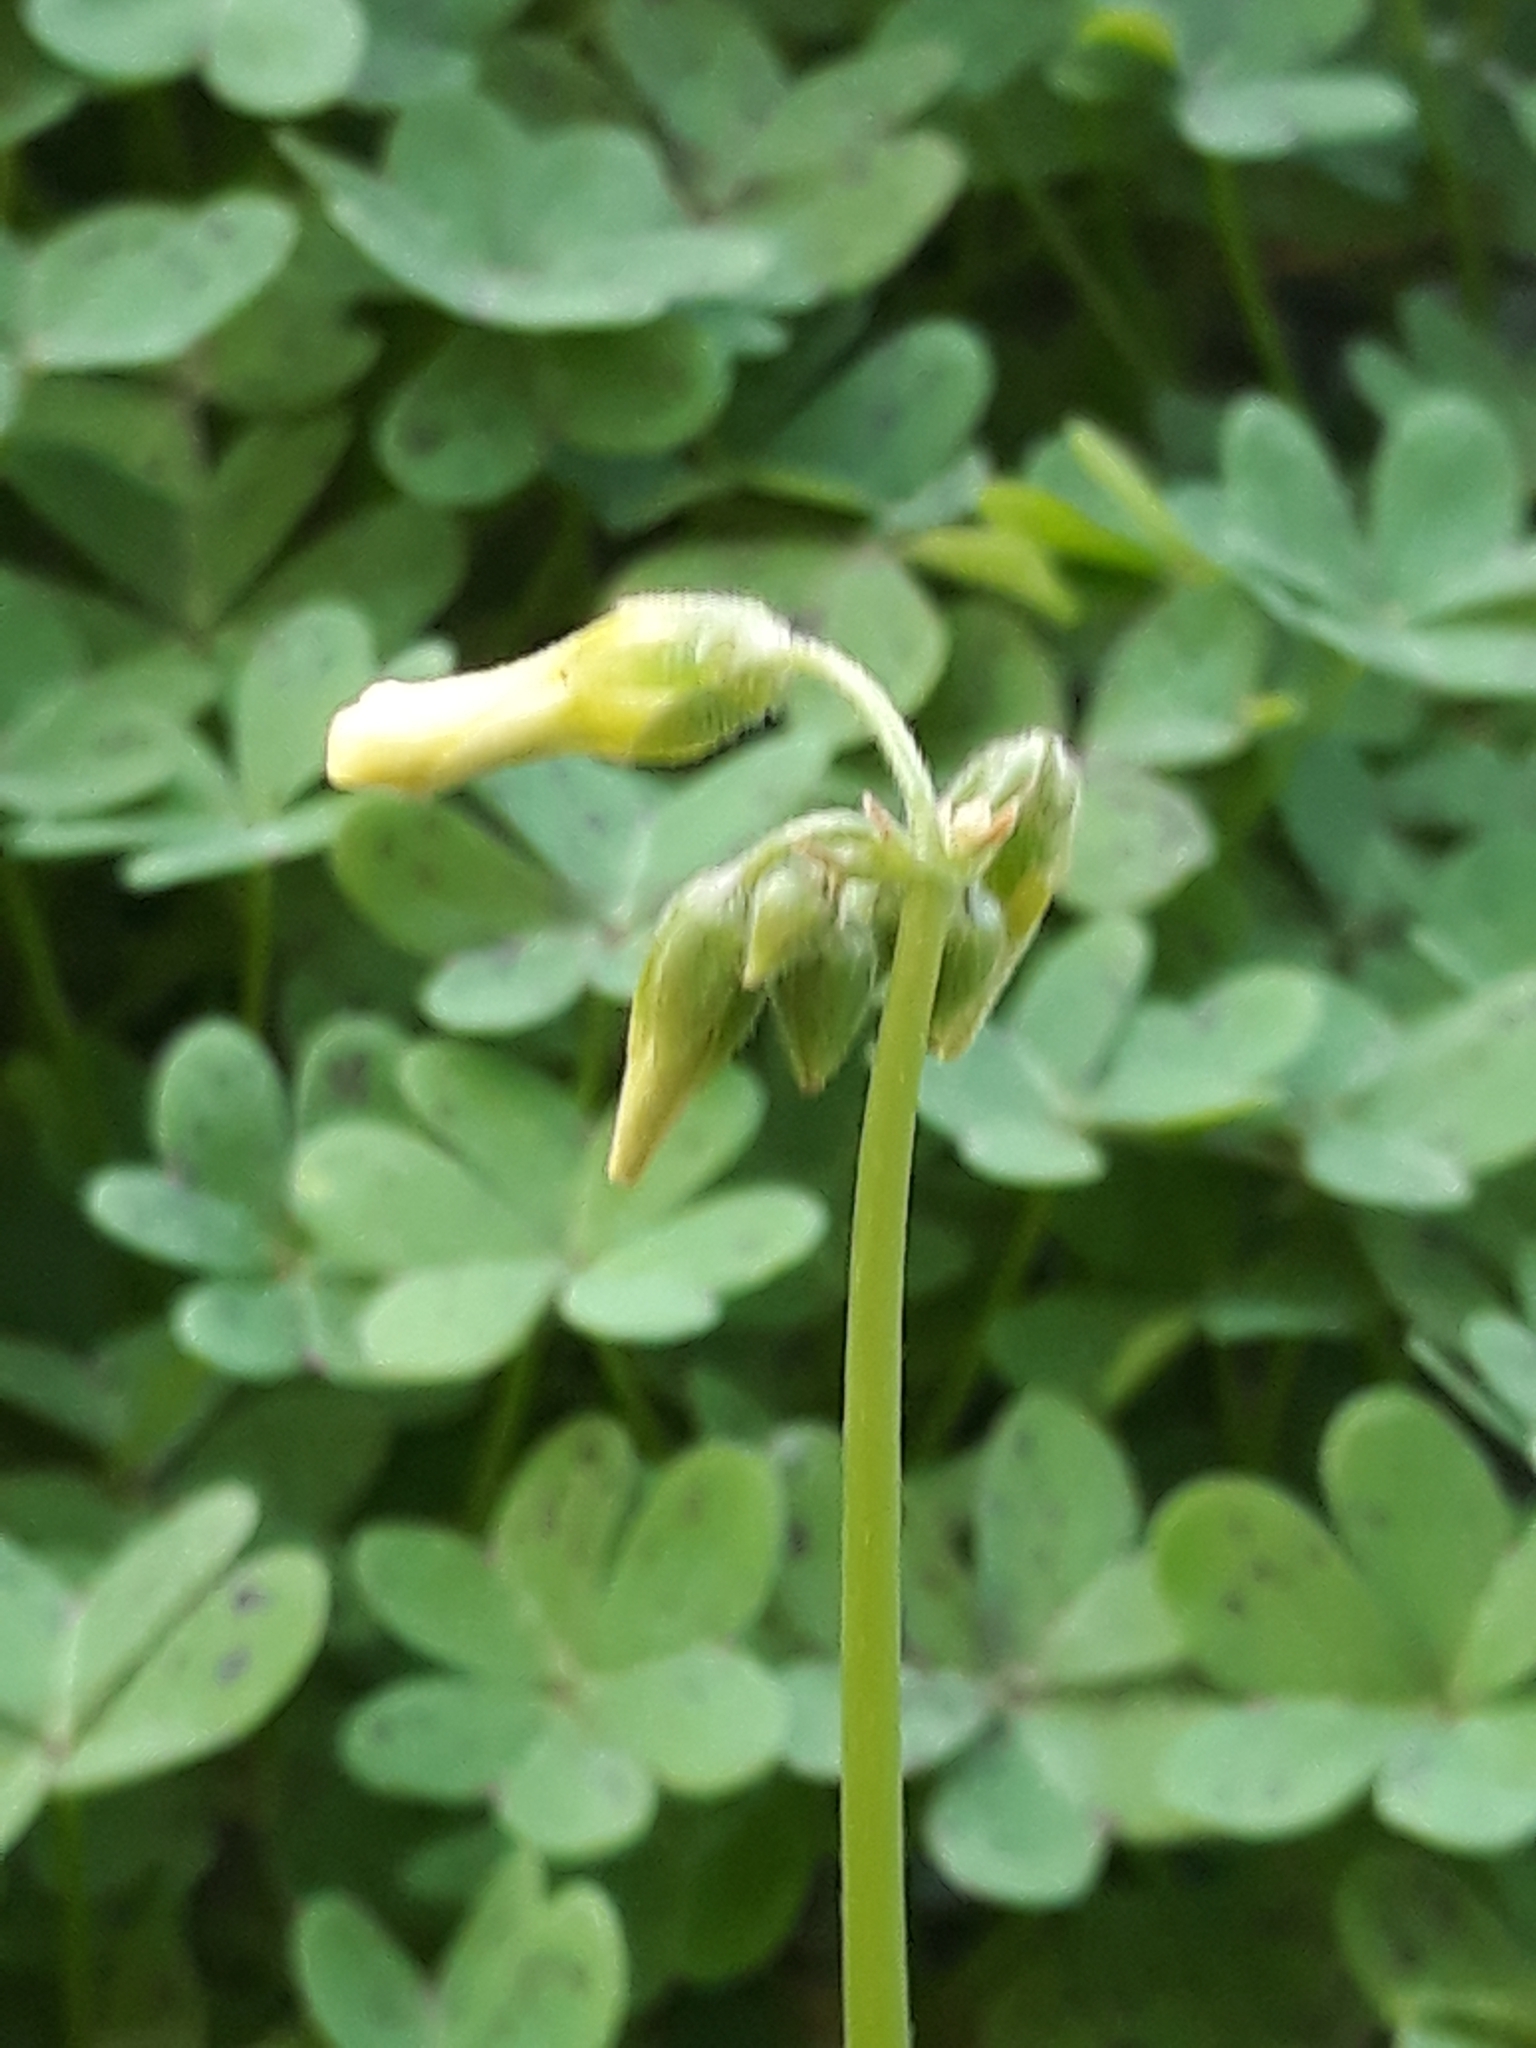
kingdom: Plantae
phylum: Tracheophyta
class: Magnoliopsida
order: Oxalidales
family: Oxalidaceae
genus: Oxalis
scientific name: Oxalis pes-caprae
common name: Bermuda-buttercup
